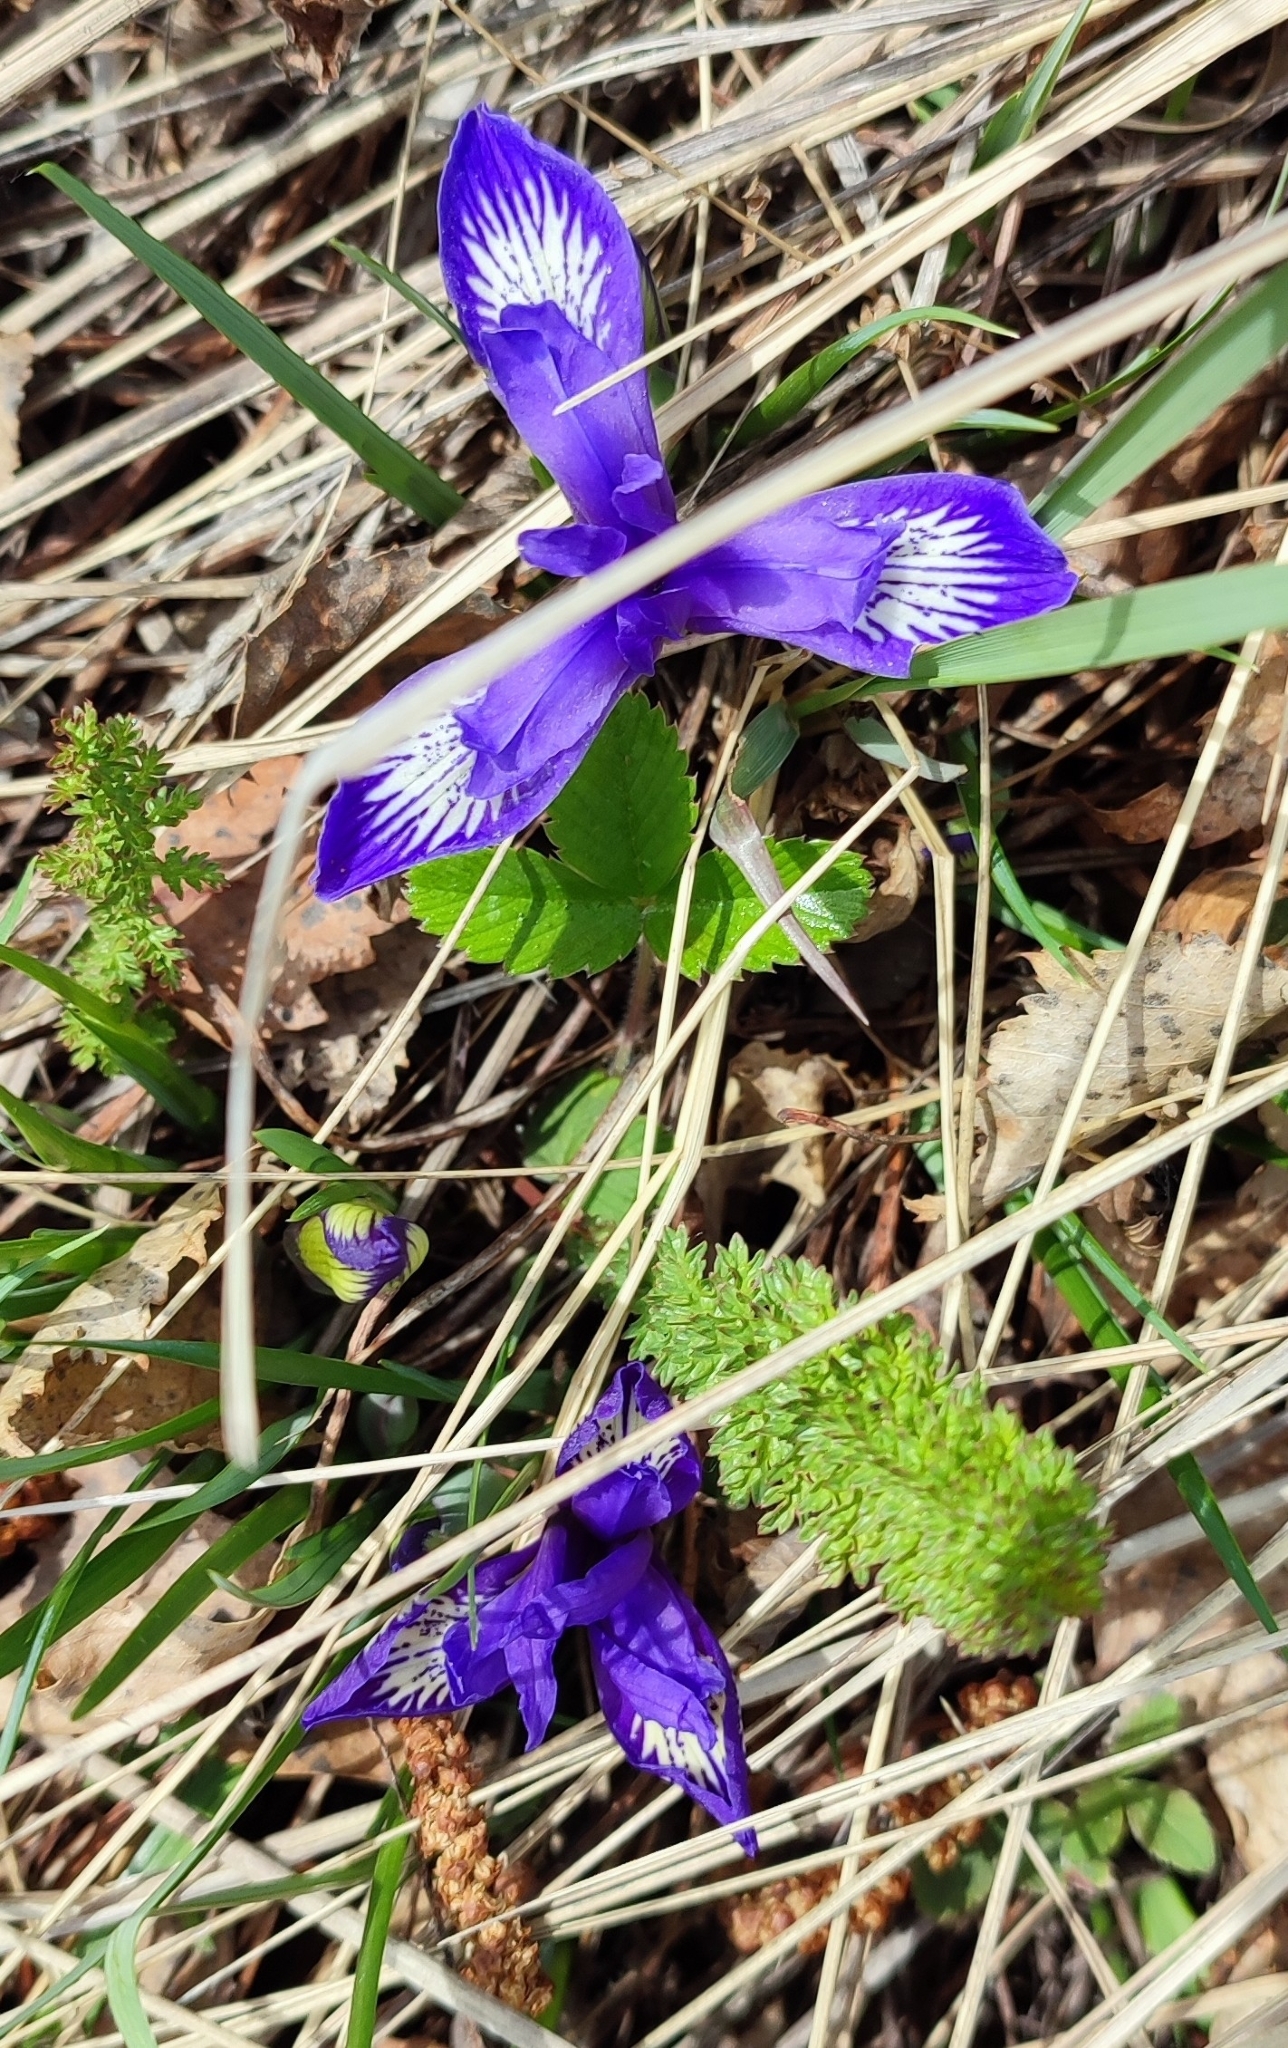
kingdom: Plantae
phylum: Tracheophyta
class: Liliopsida
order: Asparagales
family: Iridaceae
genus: Iris
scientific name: Iris ruthenica
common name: Purple-bract iris
